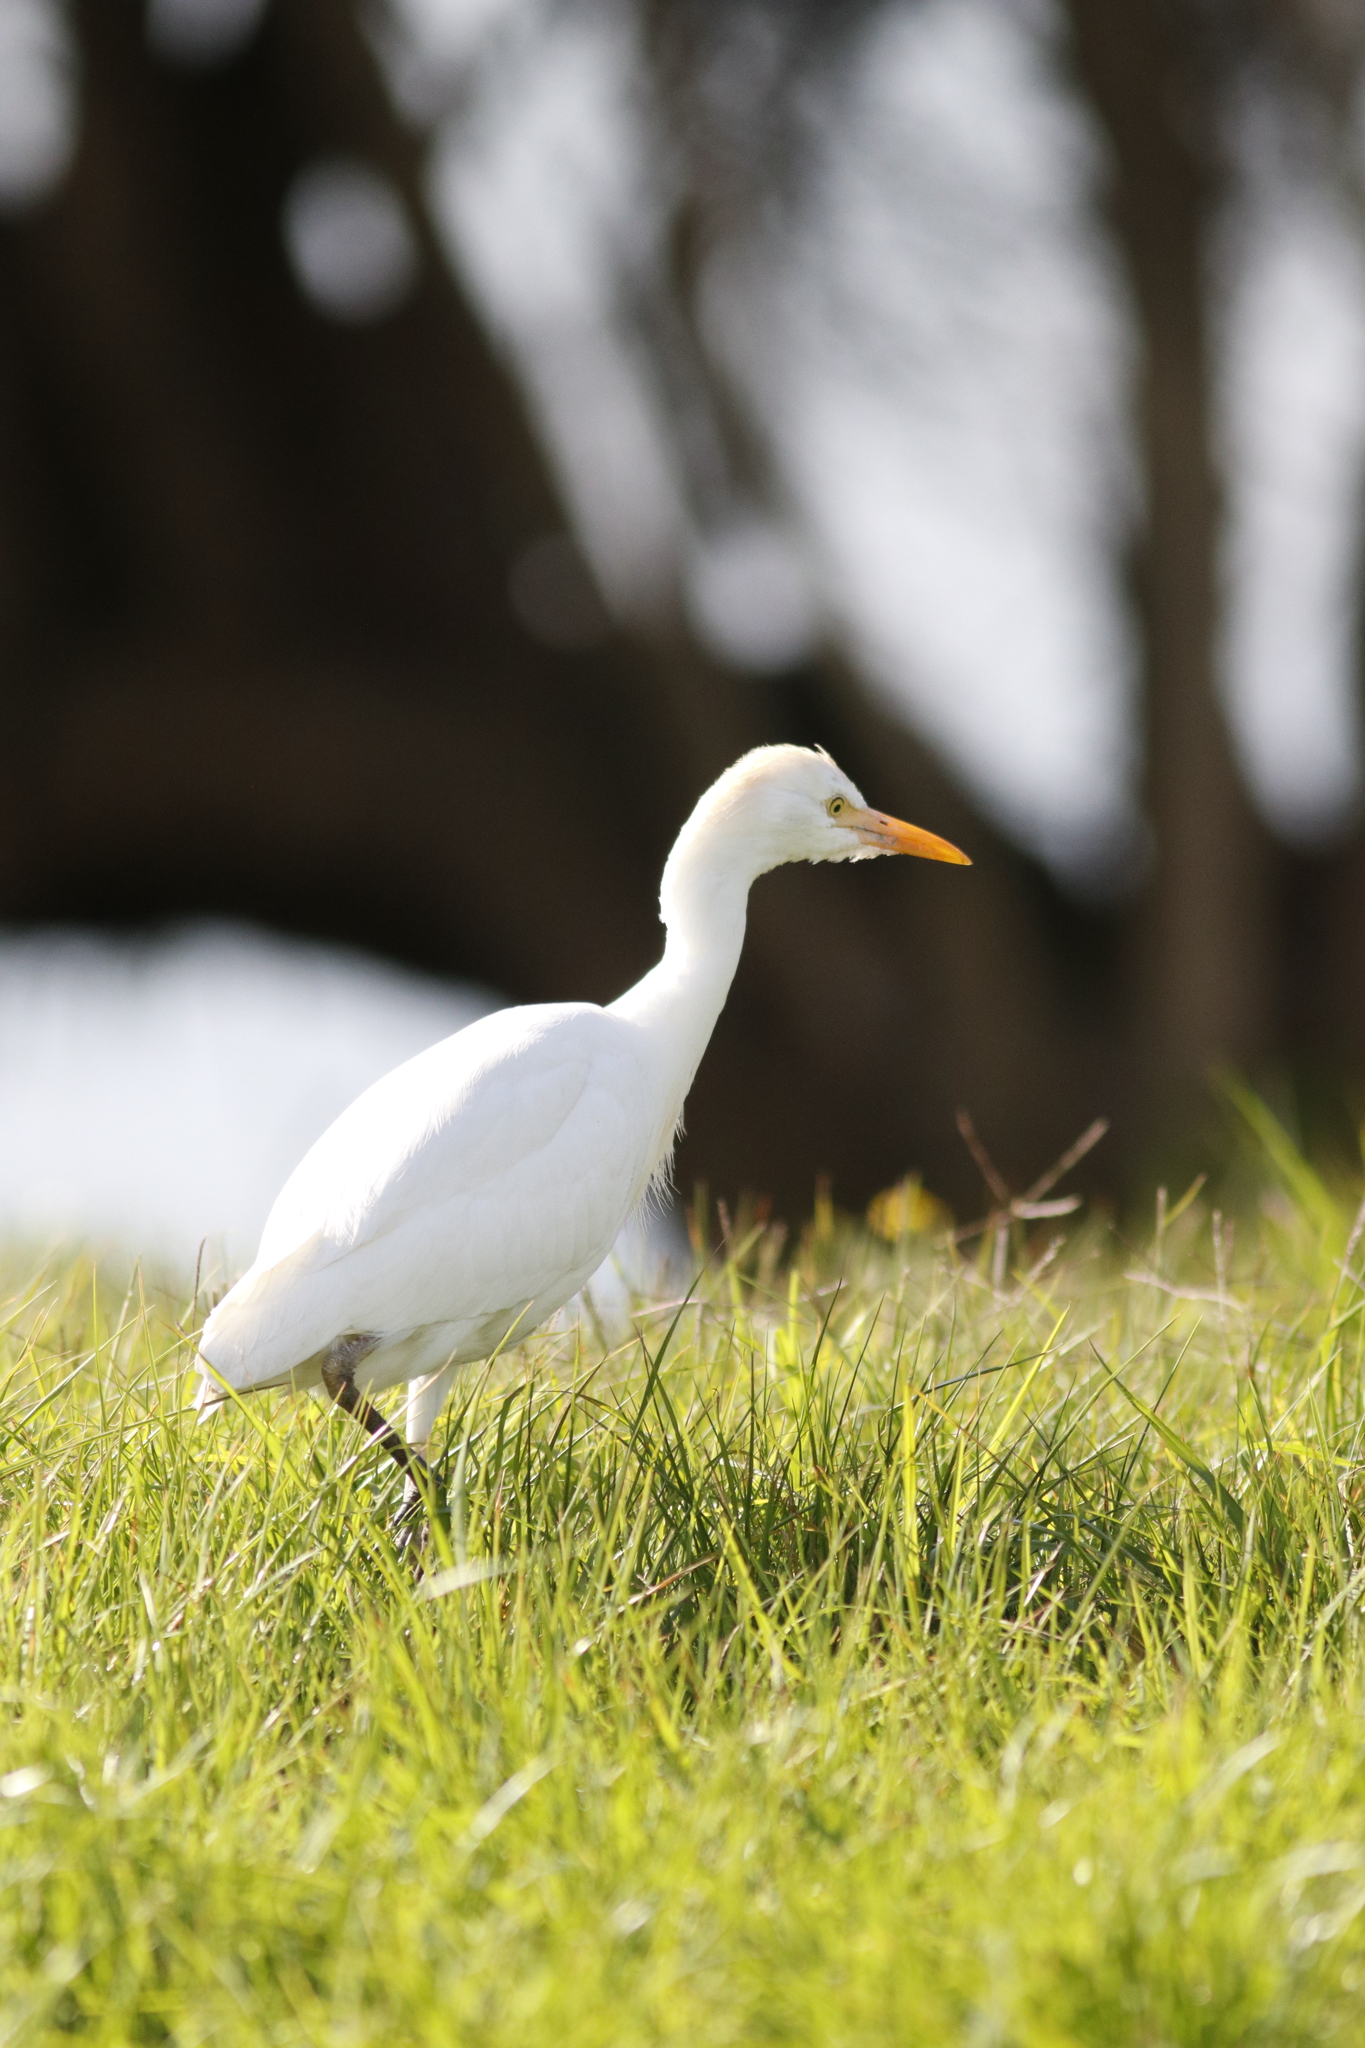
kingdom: Animalia
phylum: Chordata
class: Aves
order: Pelecaniformes
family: Ardeidae
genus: Bubulcus
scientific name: Bubulcus ibis
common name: Cattle egret
